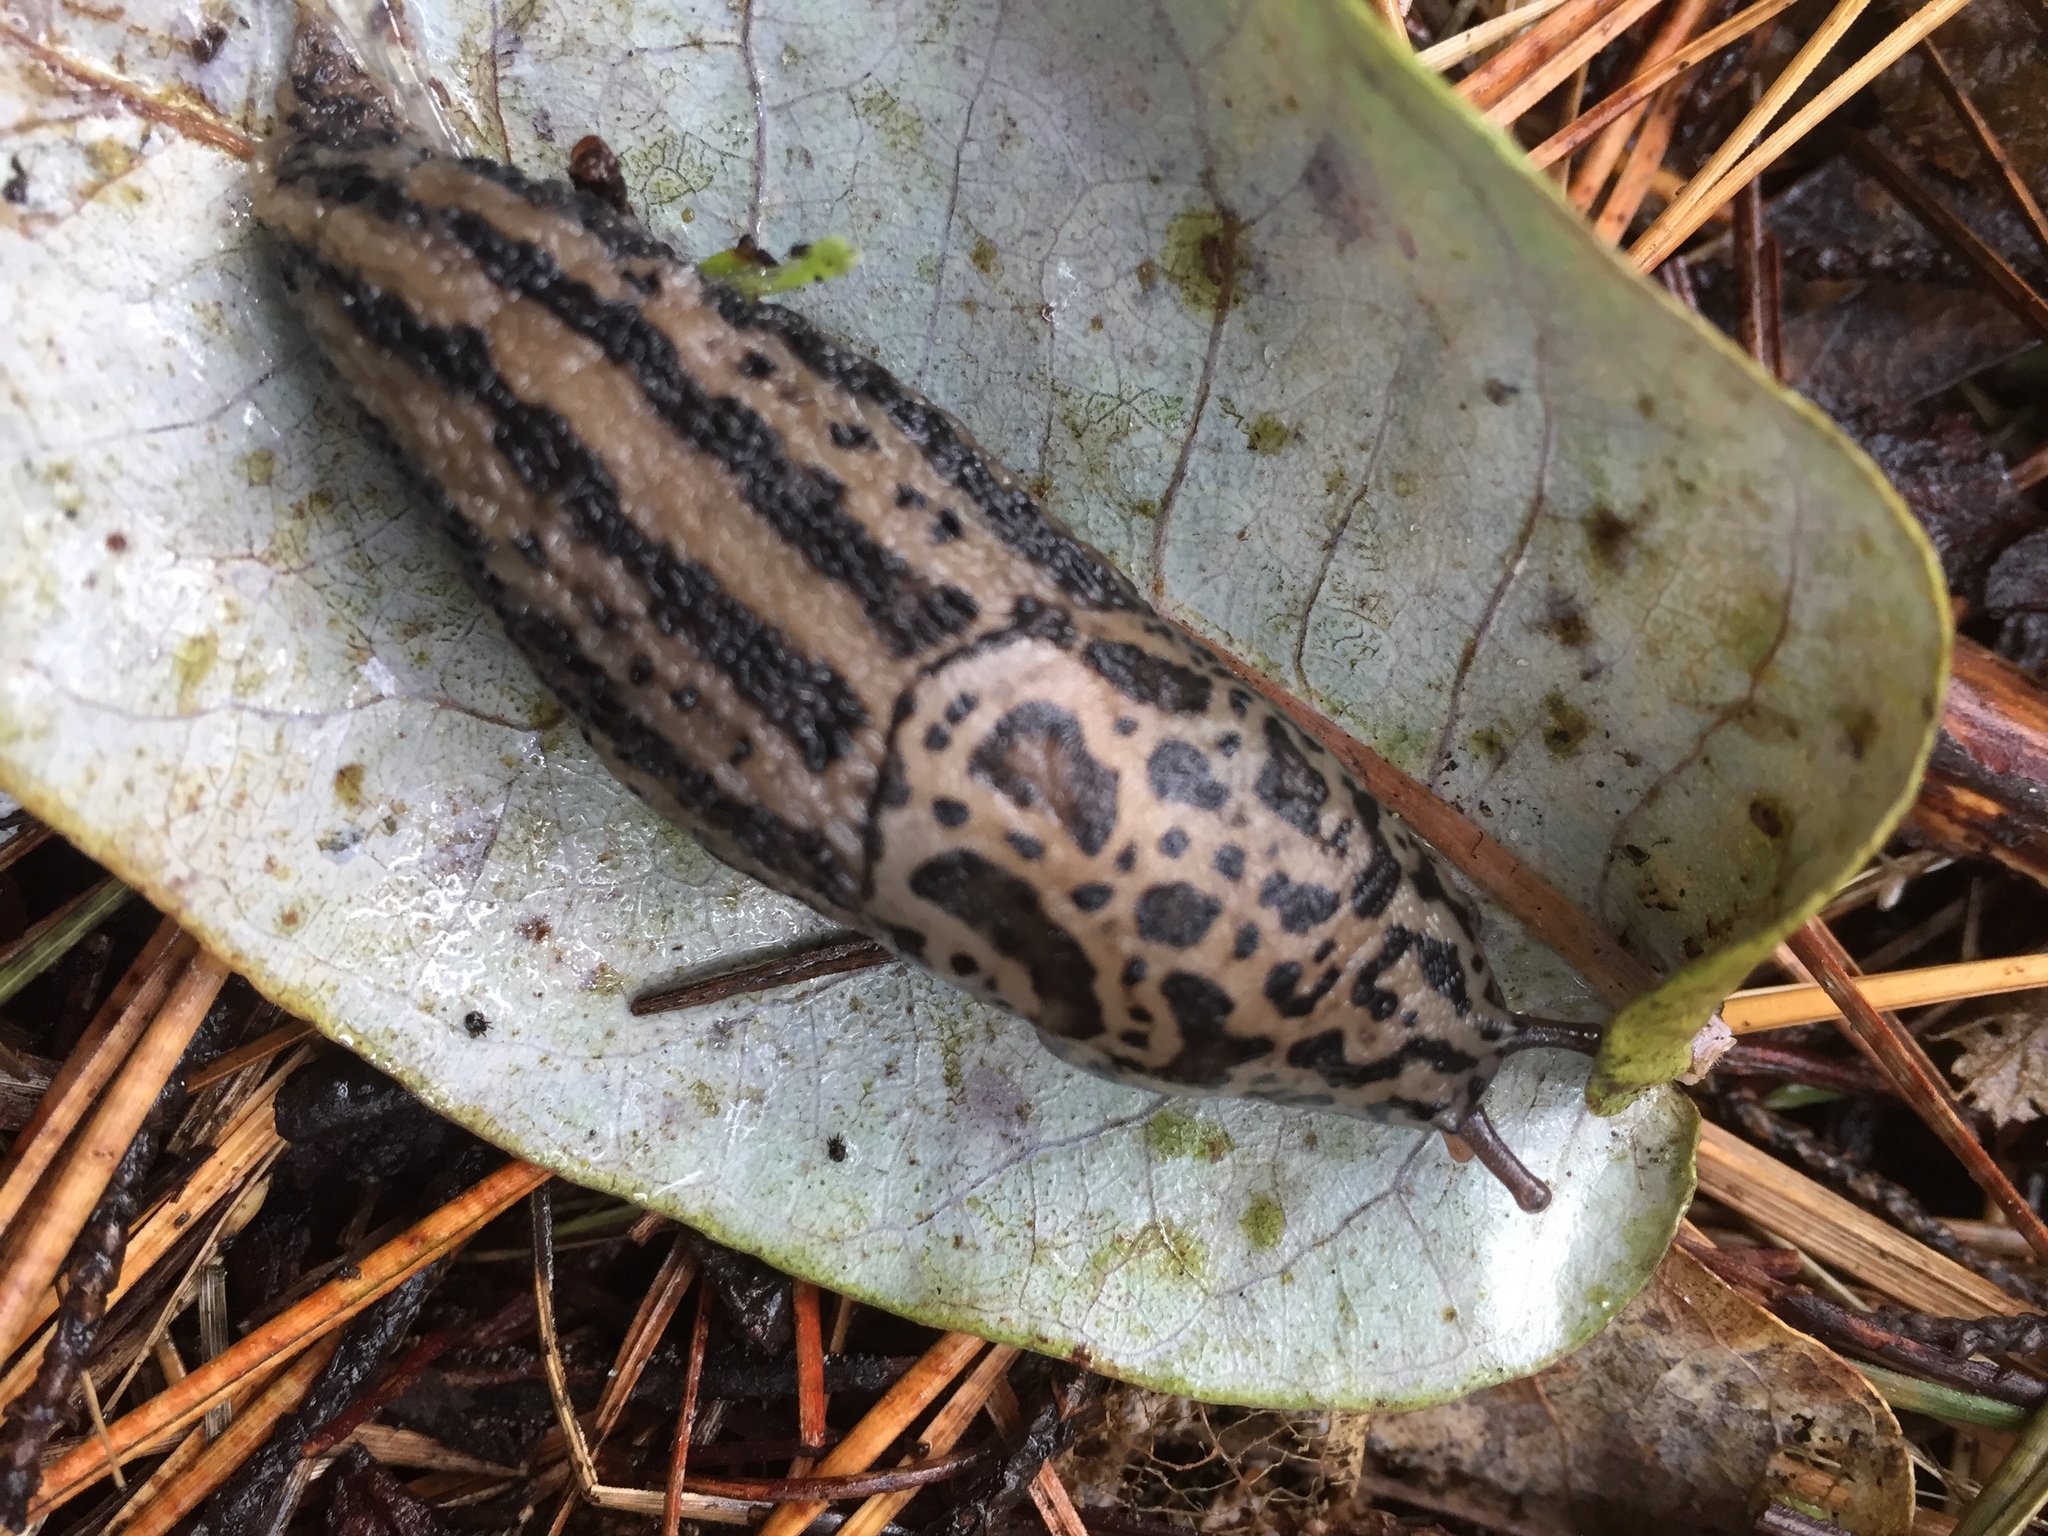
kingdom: Animalia
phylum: Mollusca
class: Gastropoda
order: Stylommatophora
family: Limacidae
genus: Limax
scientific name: Limax maximus
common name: Great grey slug
